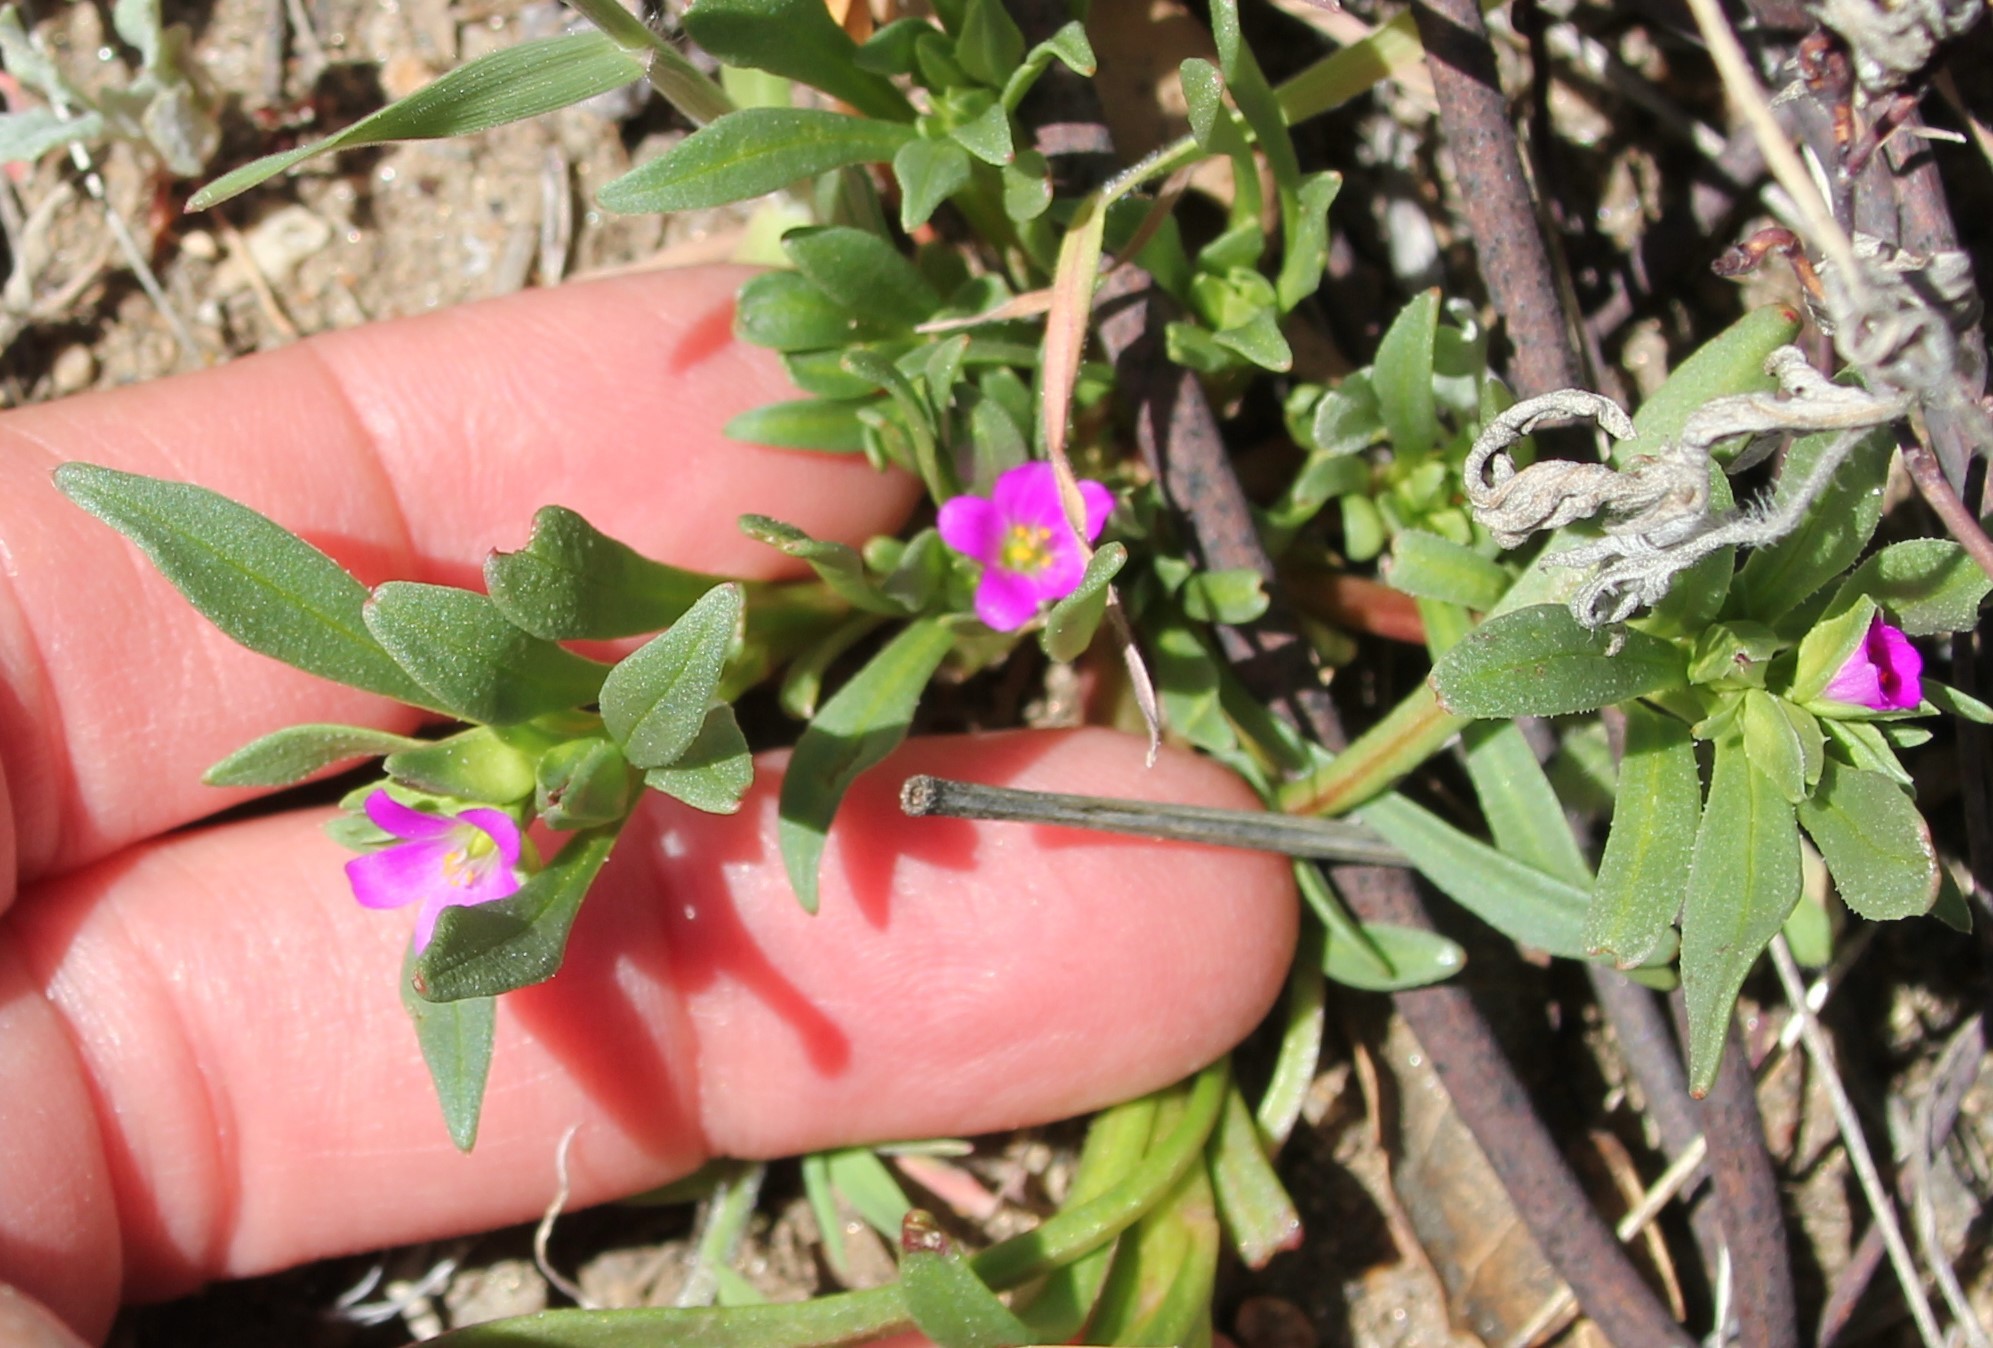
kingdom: Plantae
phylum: Tracheophyta
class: Magnoliopsida
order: Caryophyllales
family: Montiaceae
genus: Calandrinia
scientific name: Calandrinia menziesii
